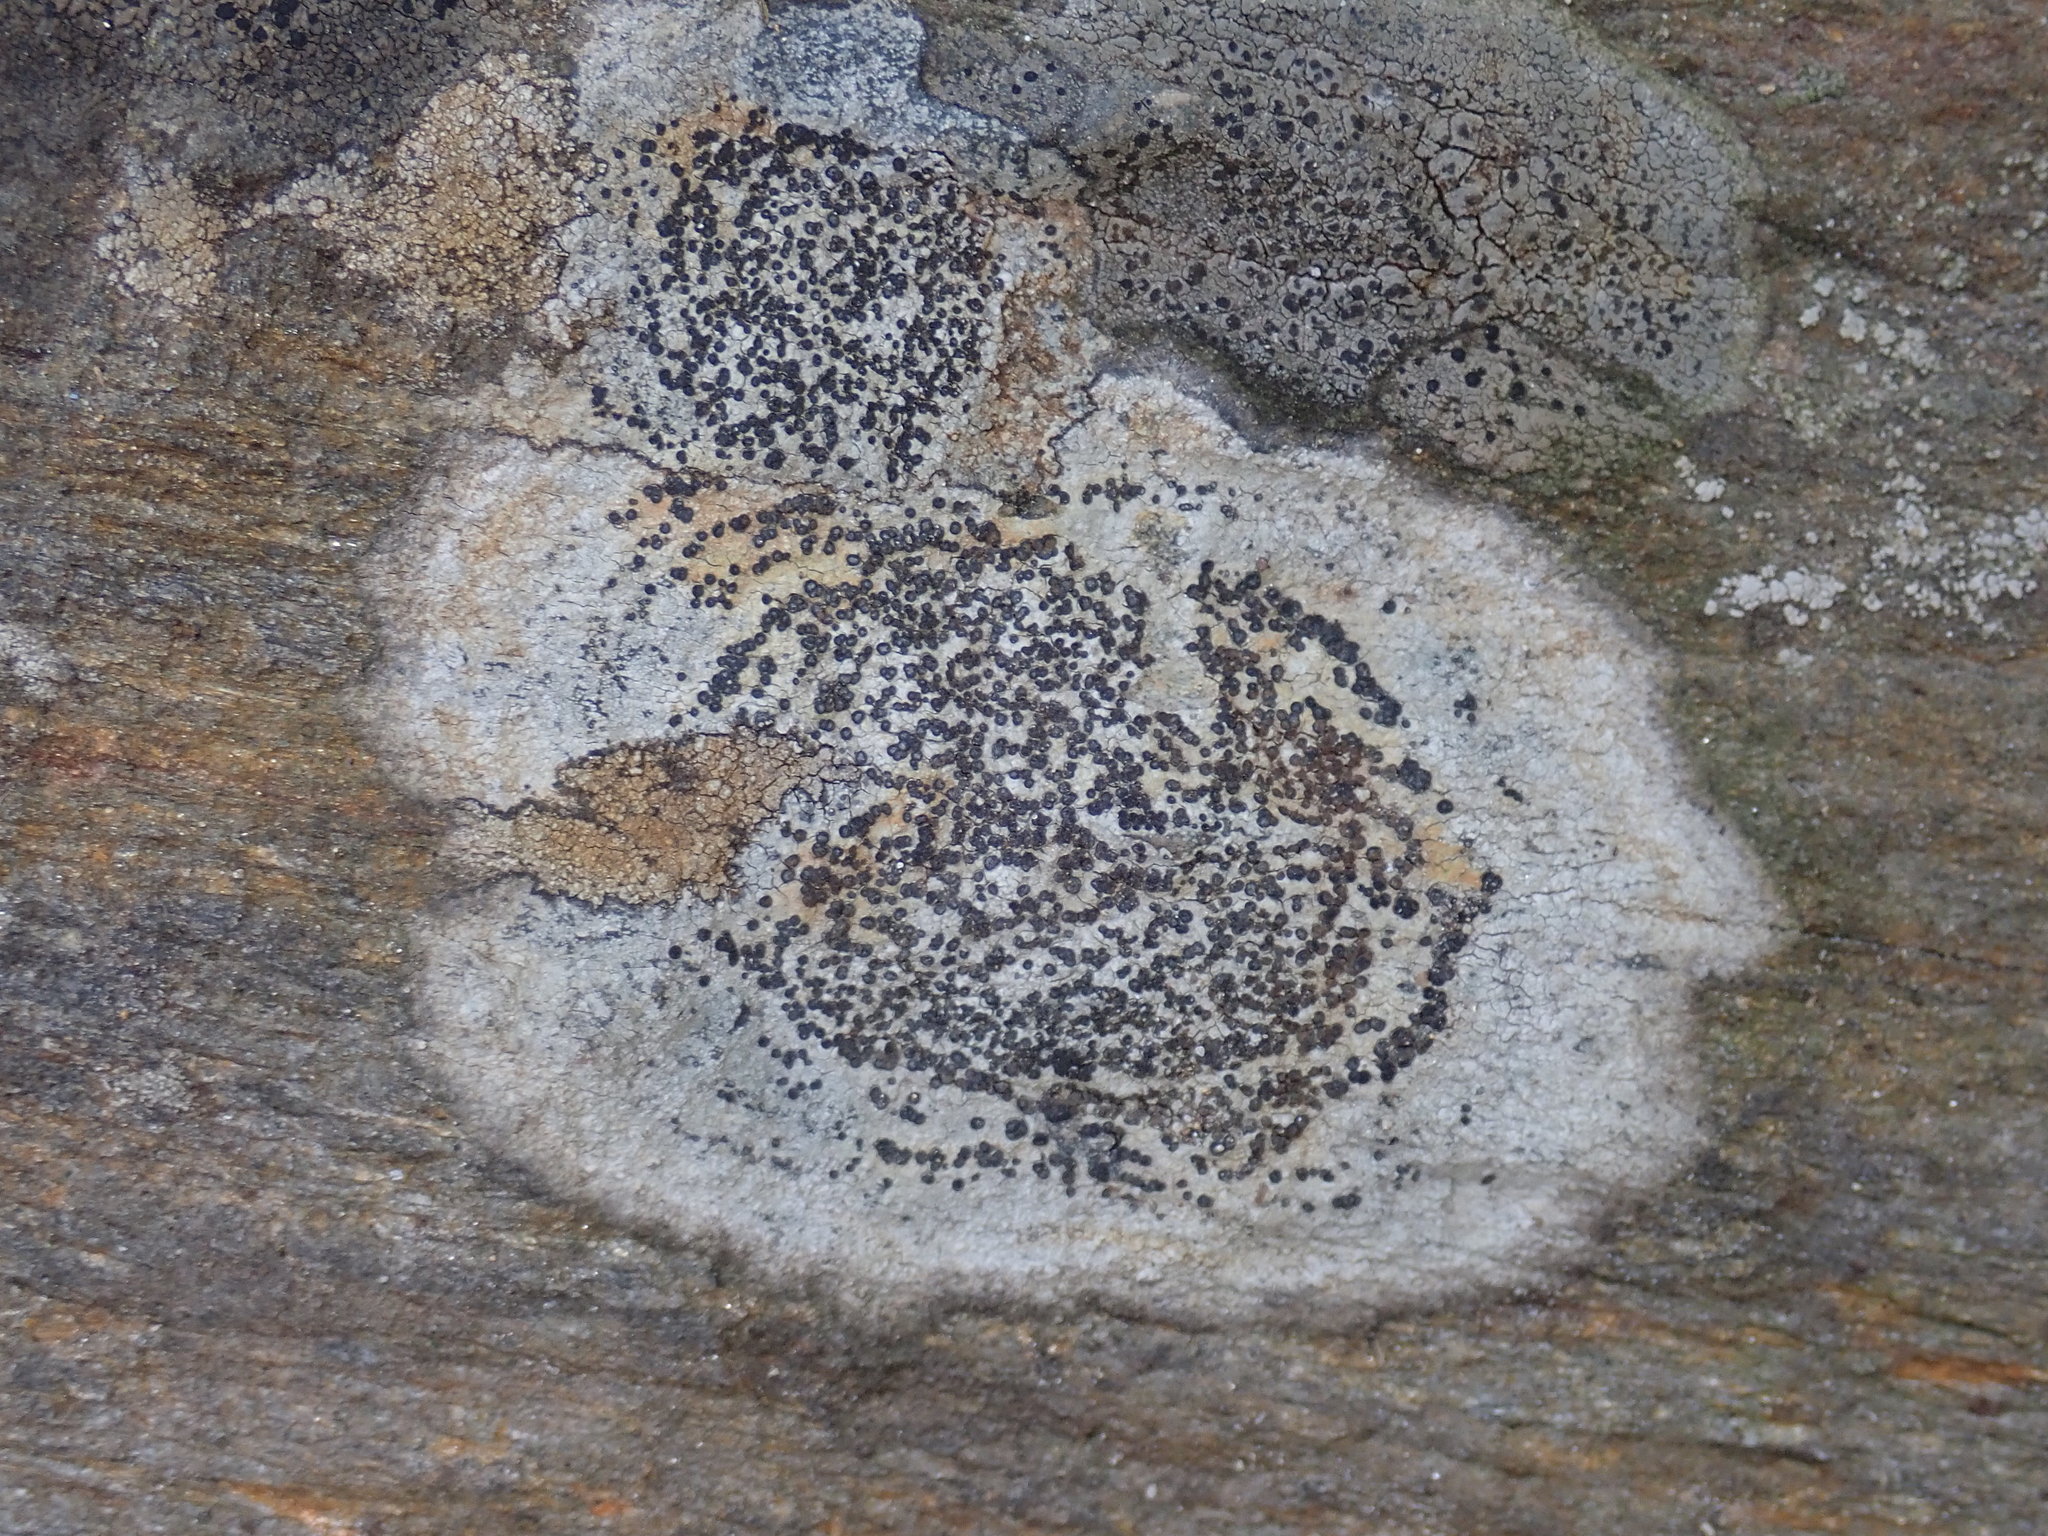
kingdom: Fungi
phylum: Ascomycota
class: Lecanoromycetes
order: Lecideales
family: Lecideaceae
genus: Porpidia
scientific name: Porpidia crustulata
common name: Concentric boulder lichen
